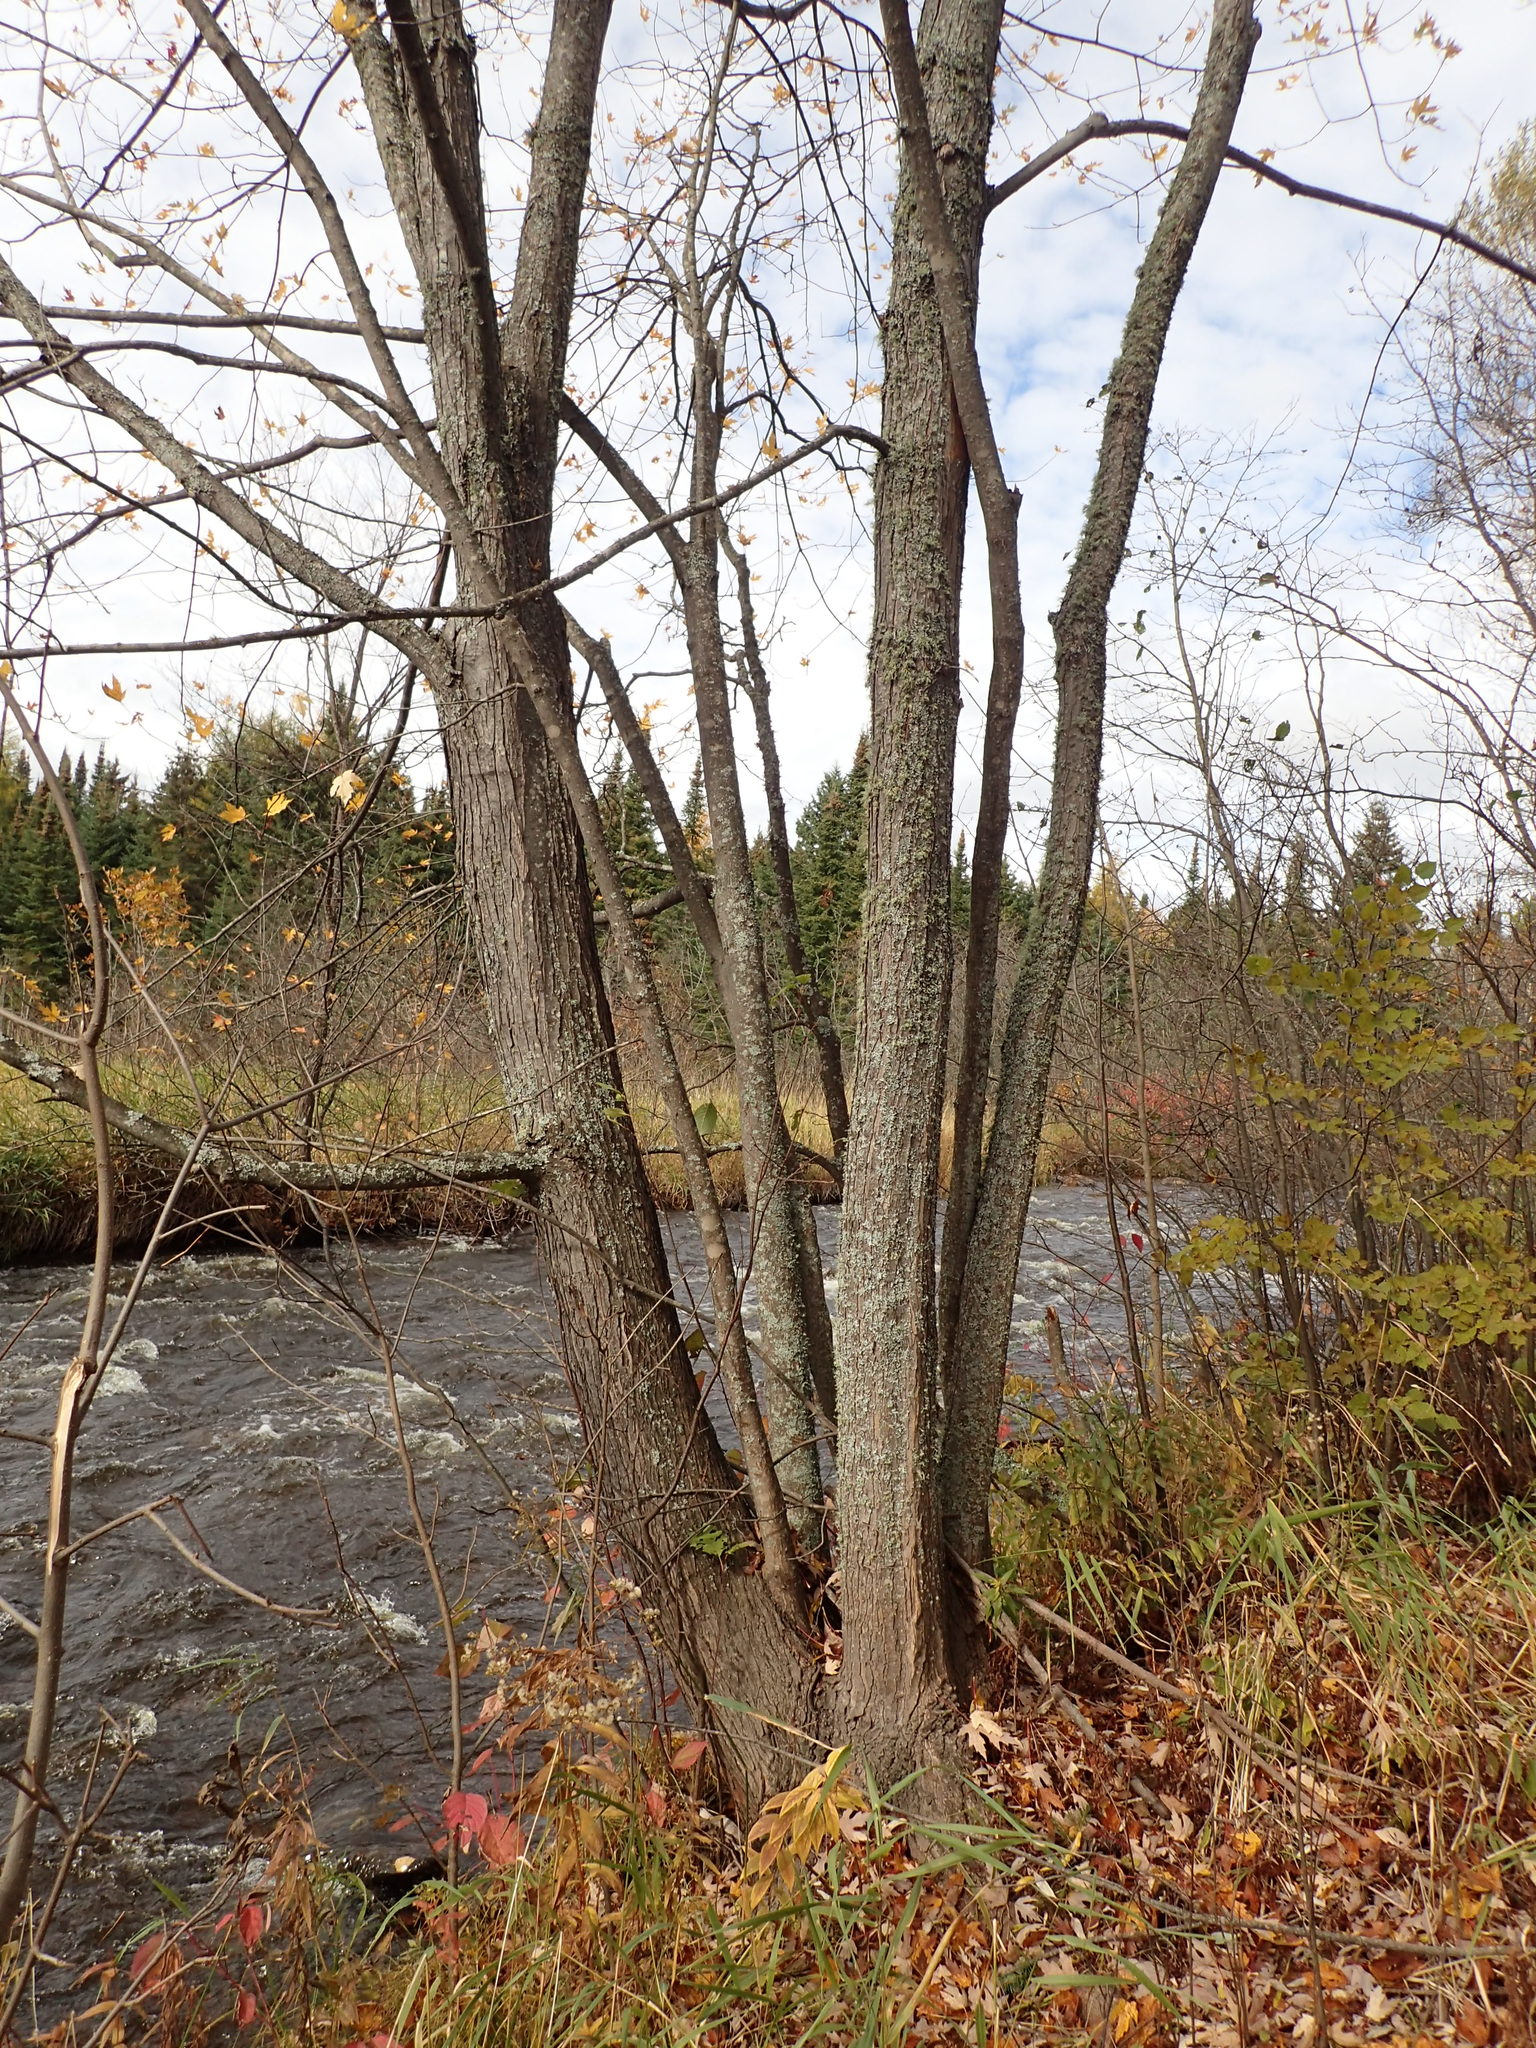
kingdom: Plantae
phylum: Tracheophyta
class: Magnoliopsida
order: Sapindales
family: Sapindaceae
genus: Acer
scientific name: Acer saccharinum
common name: Silver maple
